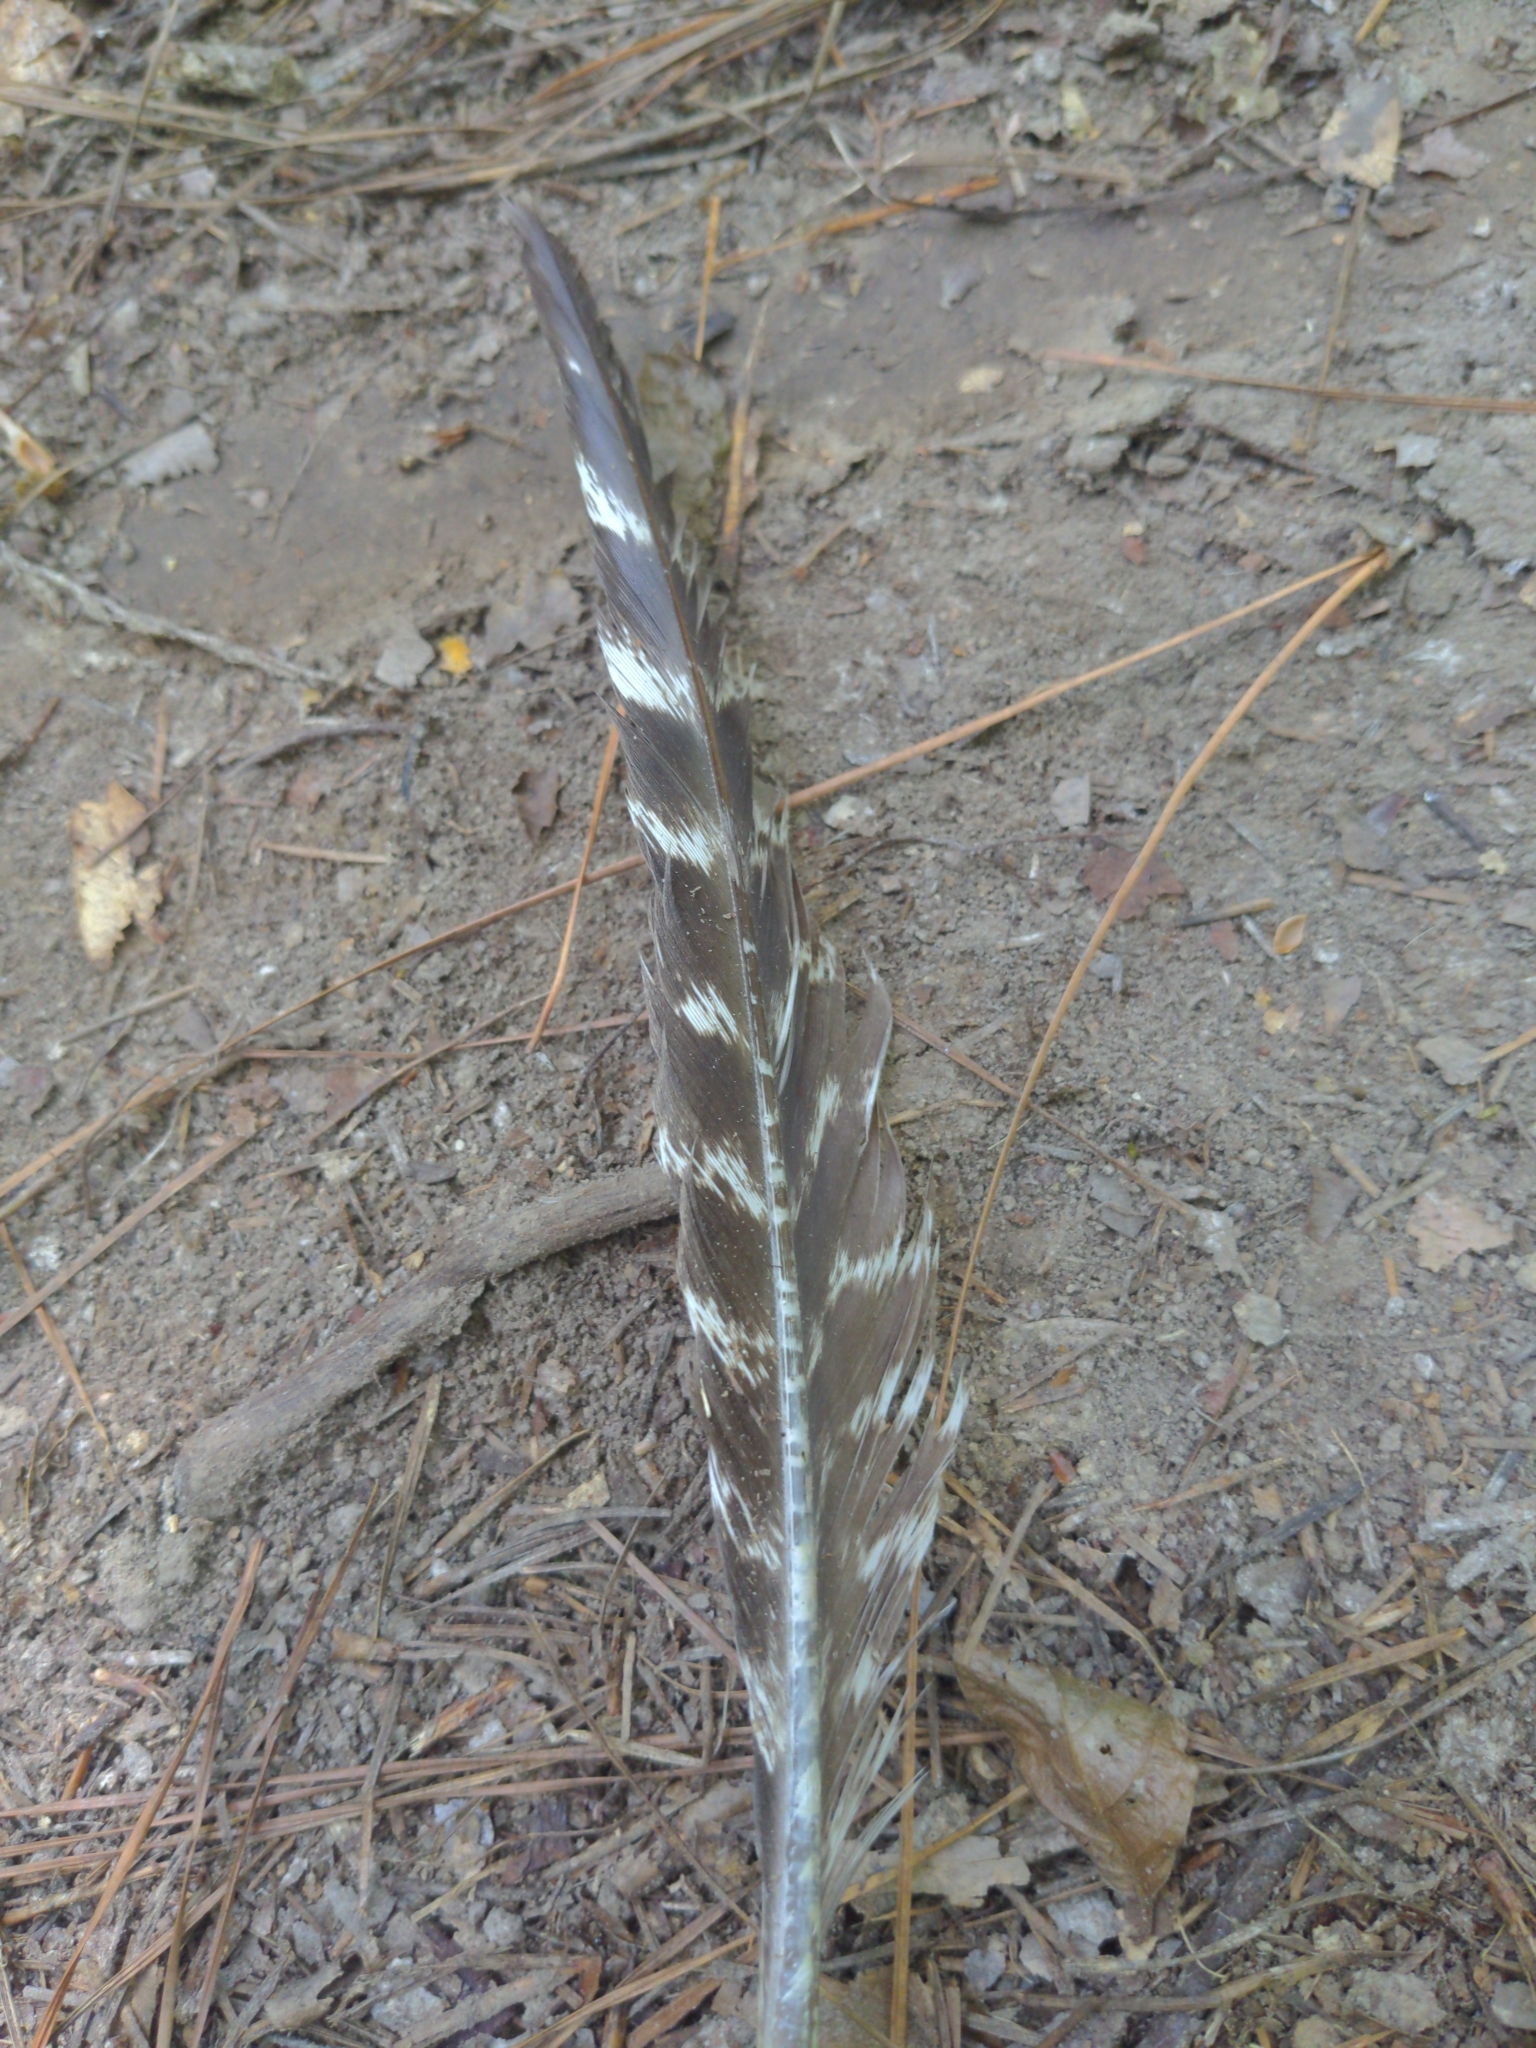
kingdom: Animalia
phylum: Chordata
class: Aves
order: Galliformes
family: Phasianidae
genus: Meleagris
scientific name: Meleagris gallopavo
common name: Wild turkey
